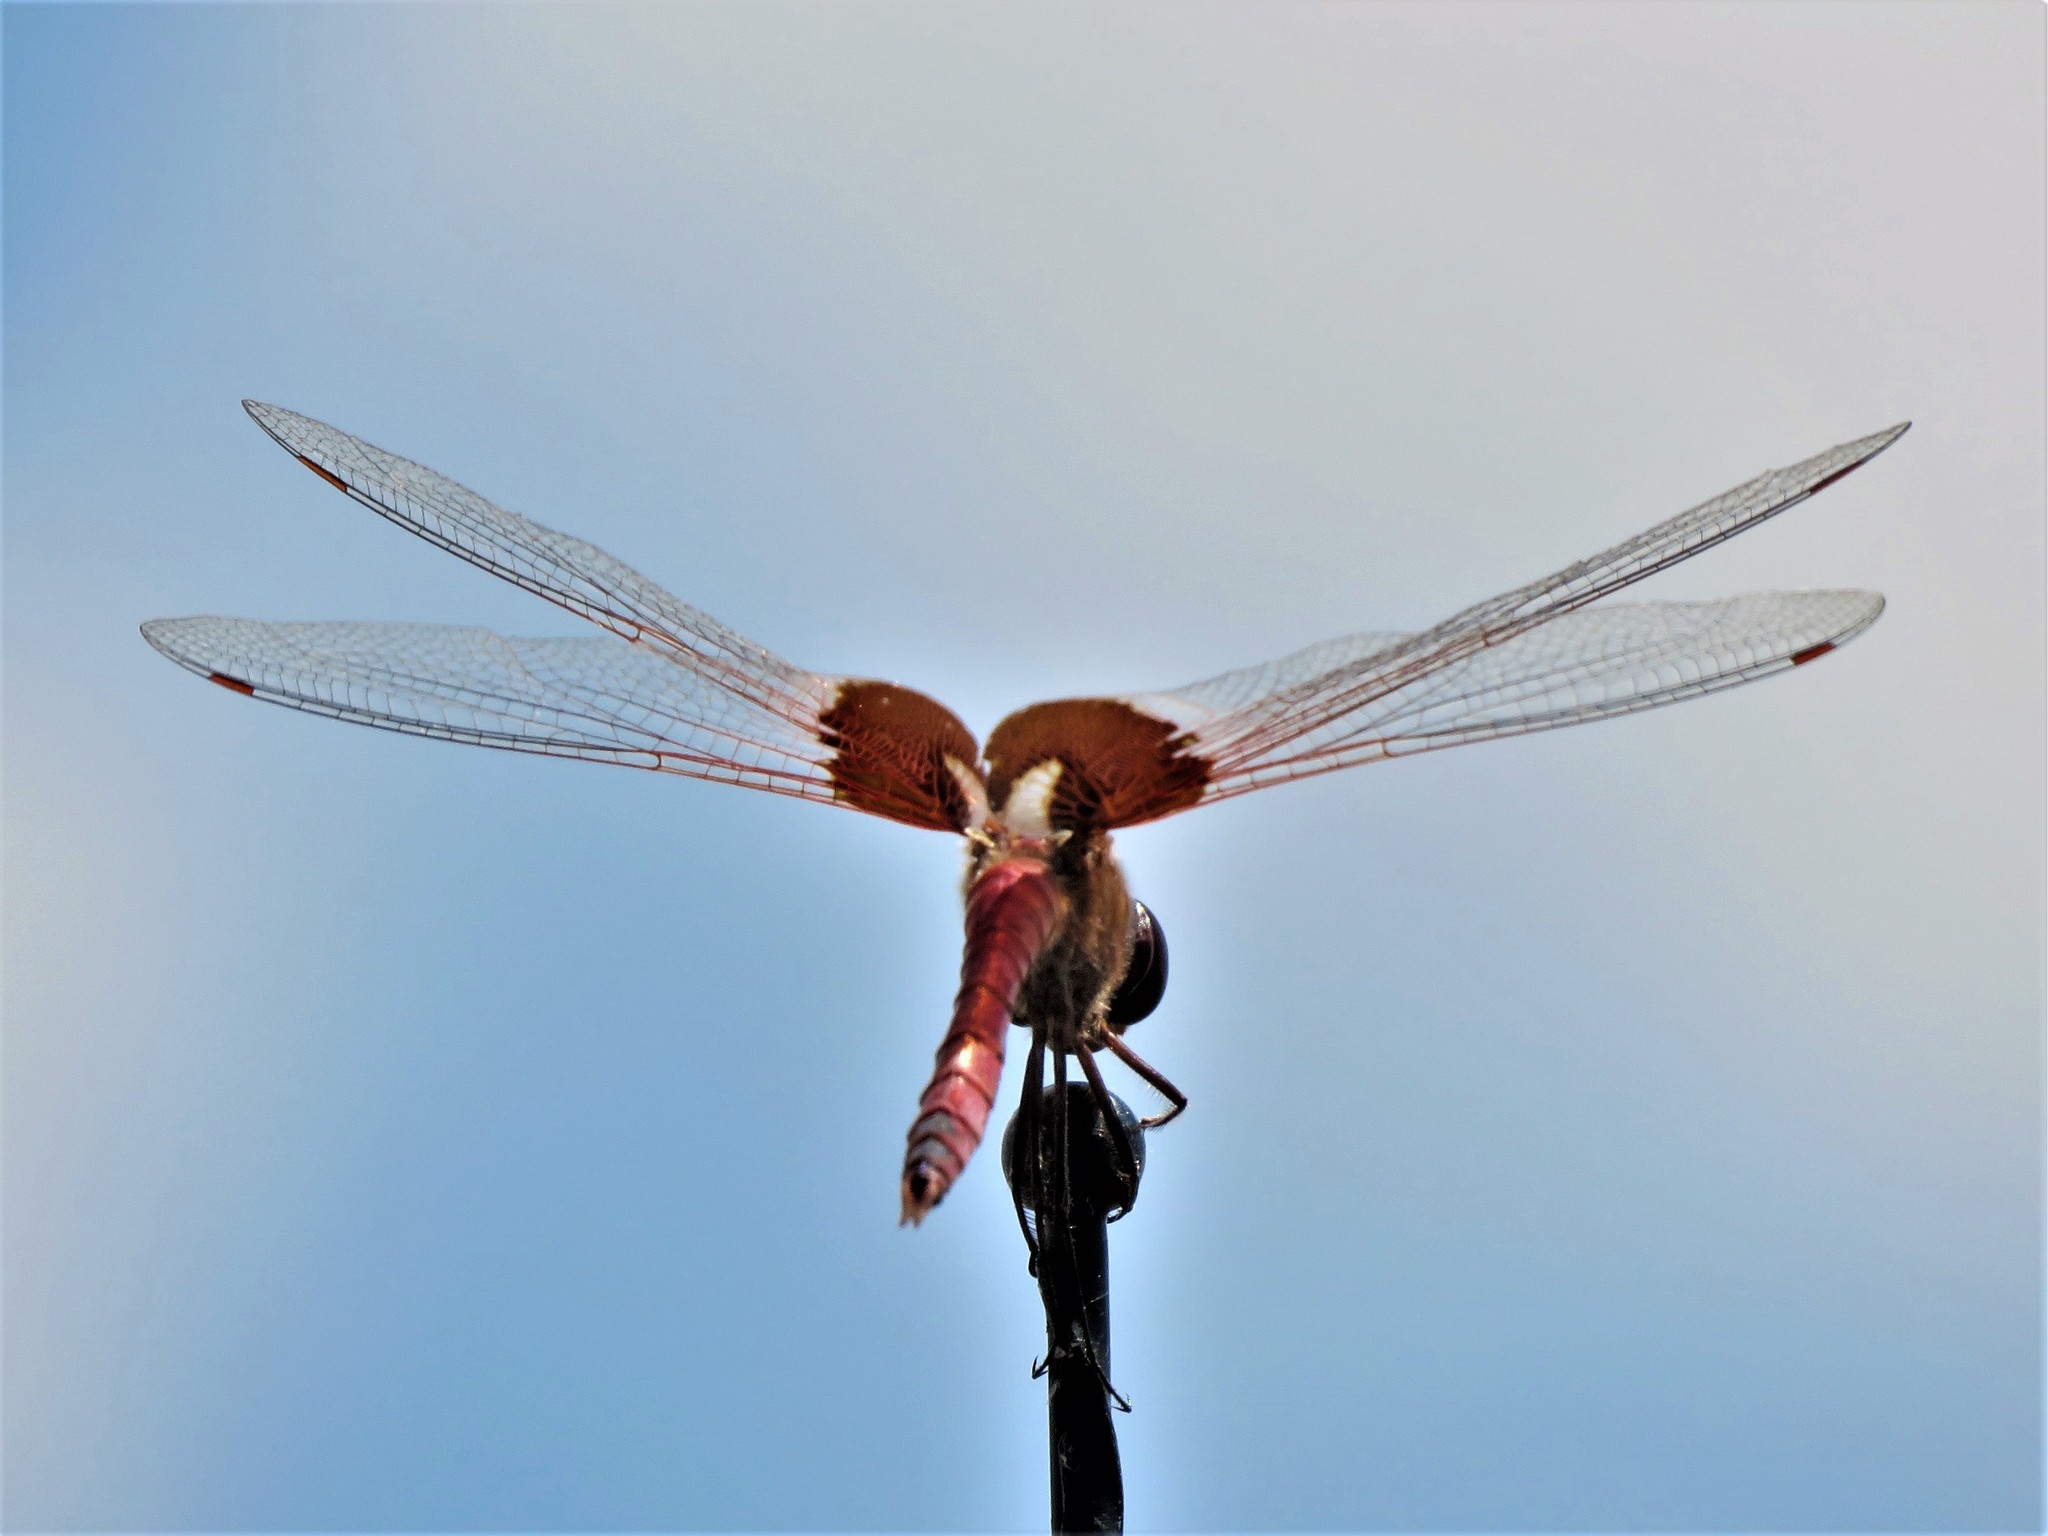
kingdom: Animalia
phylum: Arthropoda
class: Insecta
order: Odonata
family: Libellulidae
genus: Tramea
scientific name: Tramea onusta
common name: Red saddlebags
